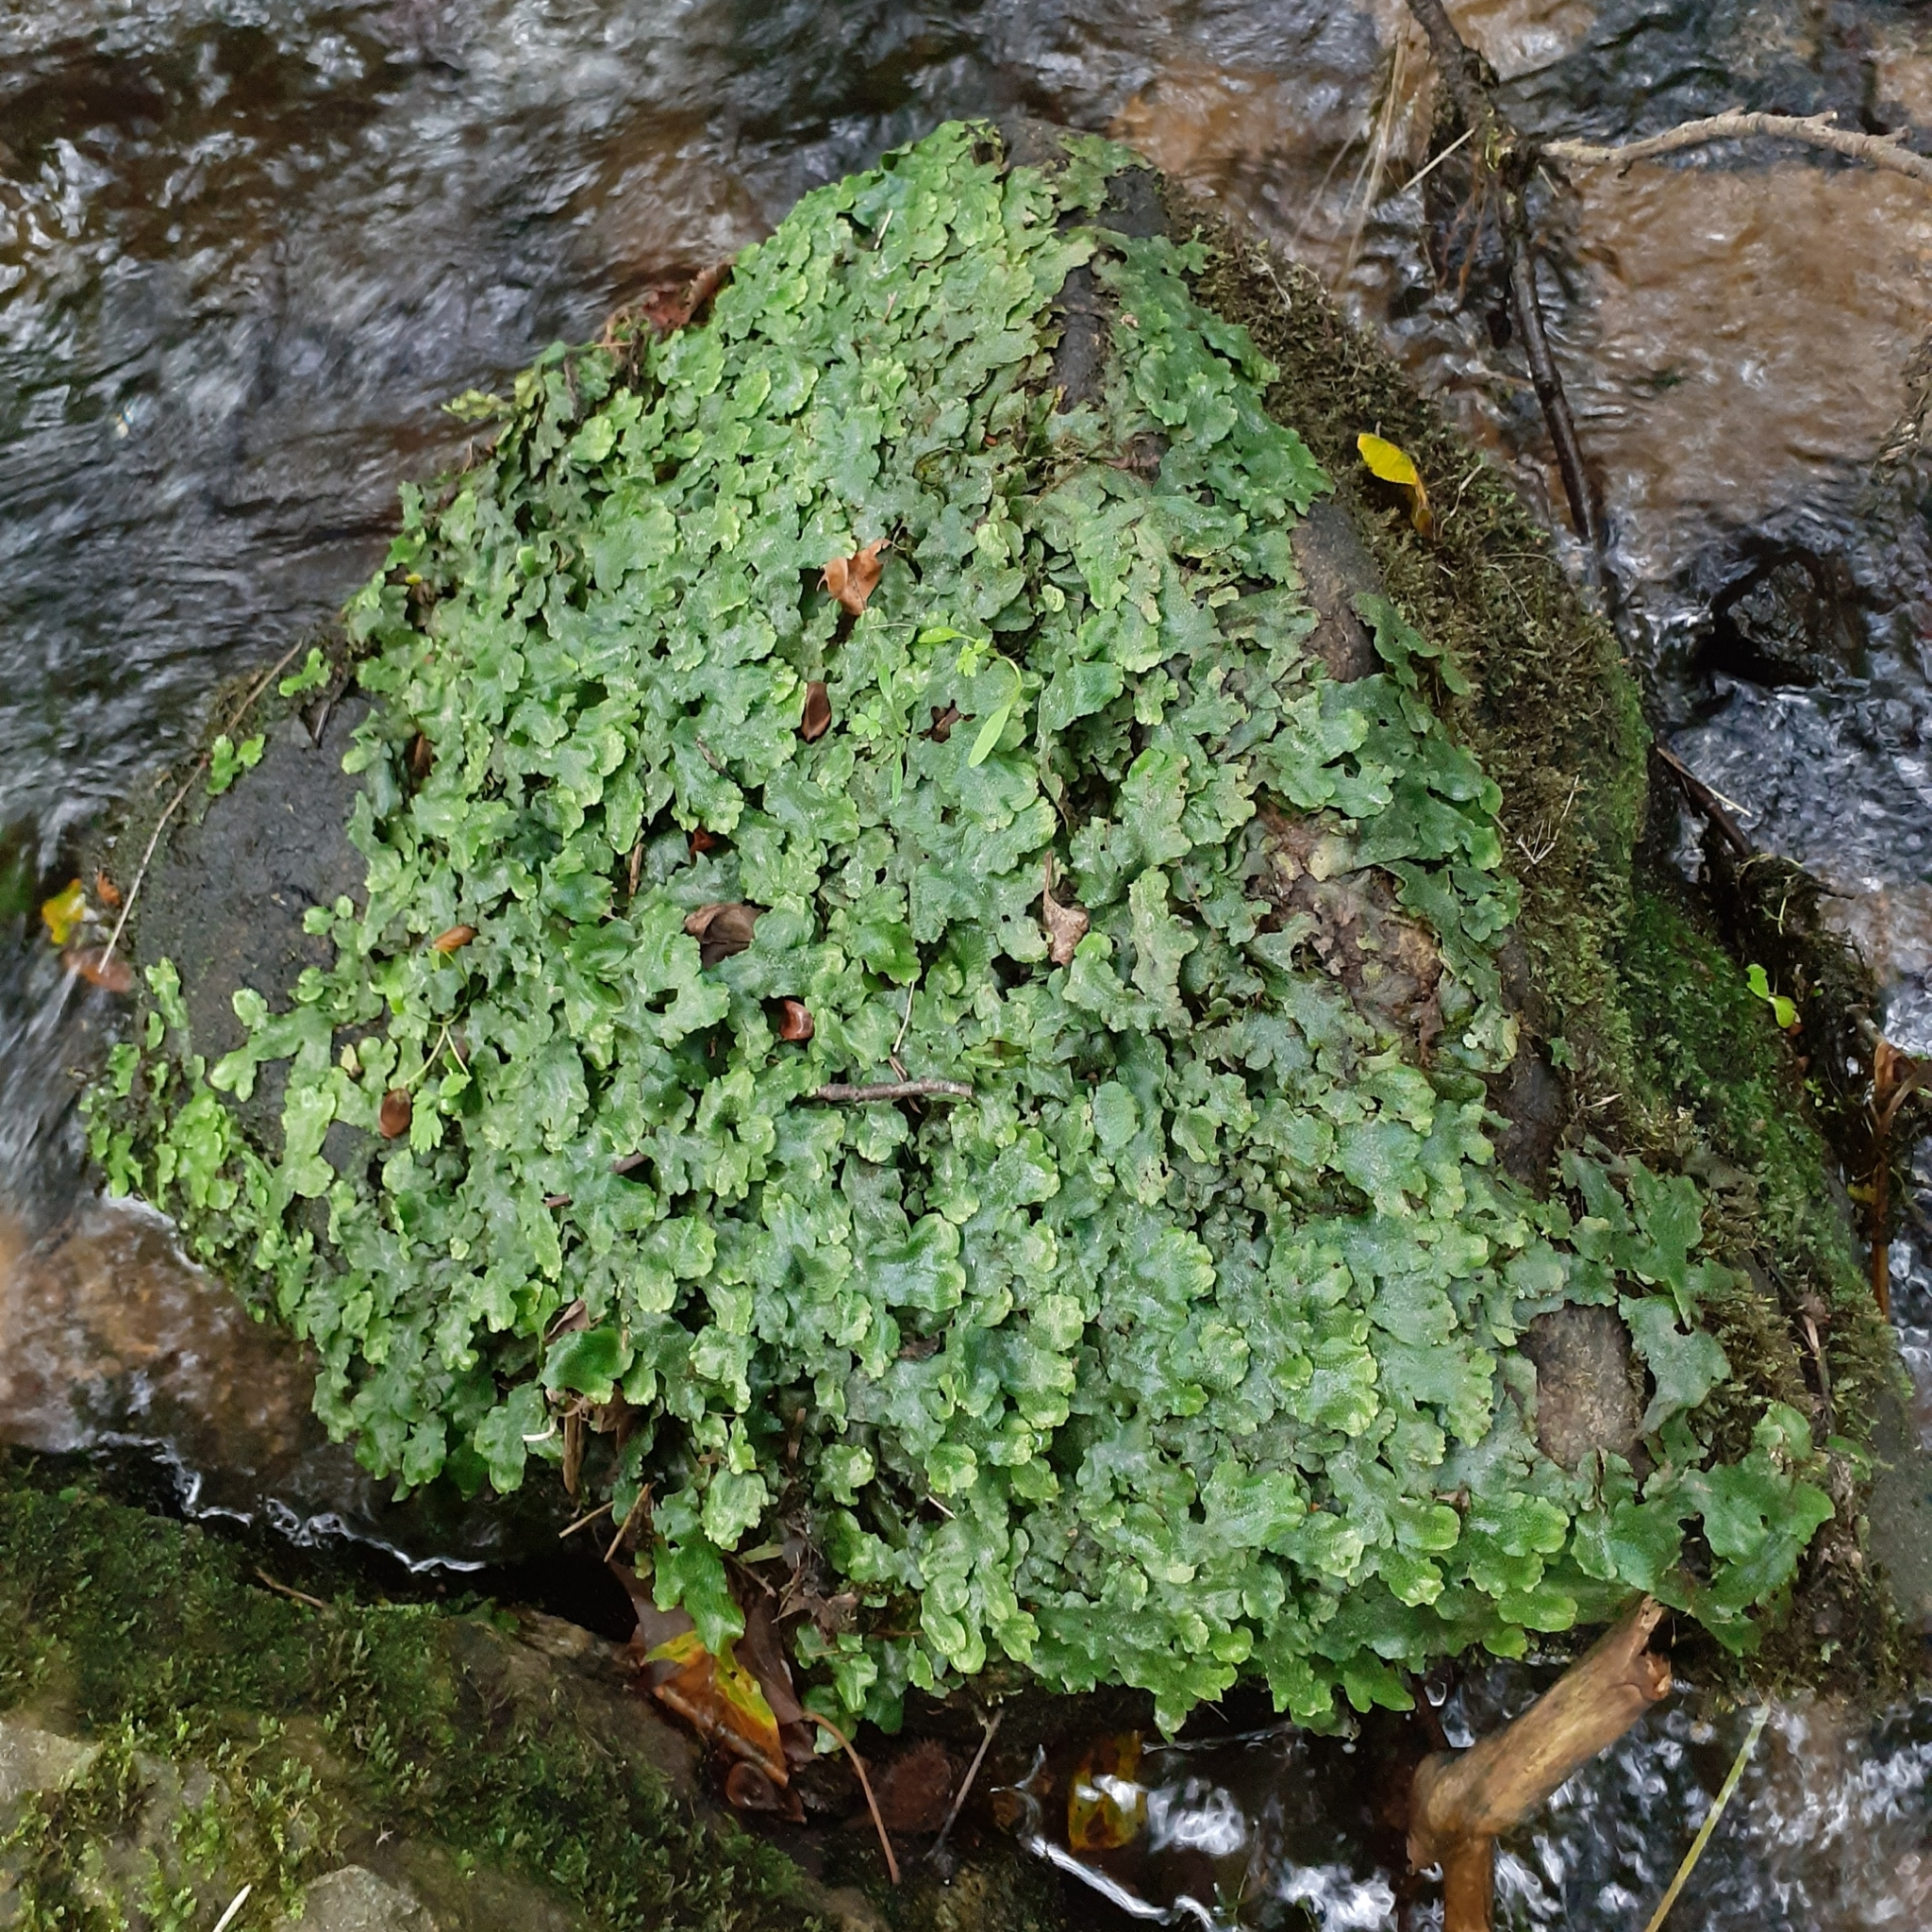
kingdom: Plantae
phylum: Marchantiophyta
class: Marchantiopsida
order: Marchantiales
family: Conocephalaceae
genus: Conocephalum
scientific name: Conocephalum conicum
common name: Great scented liverwort
